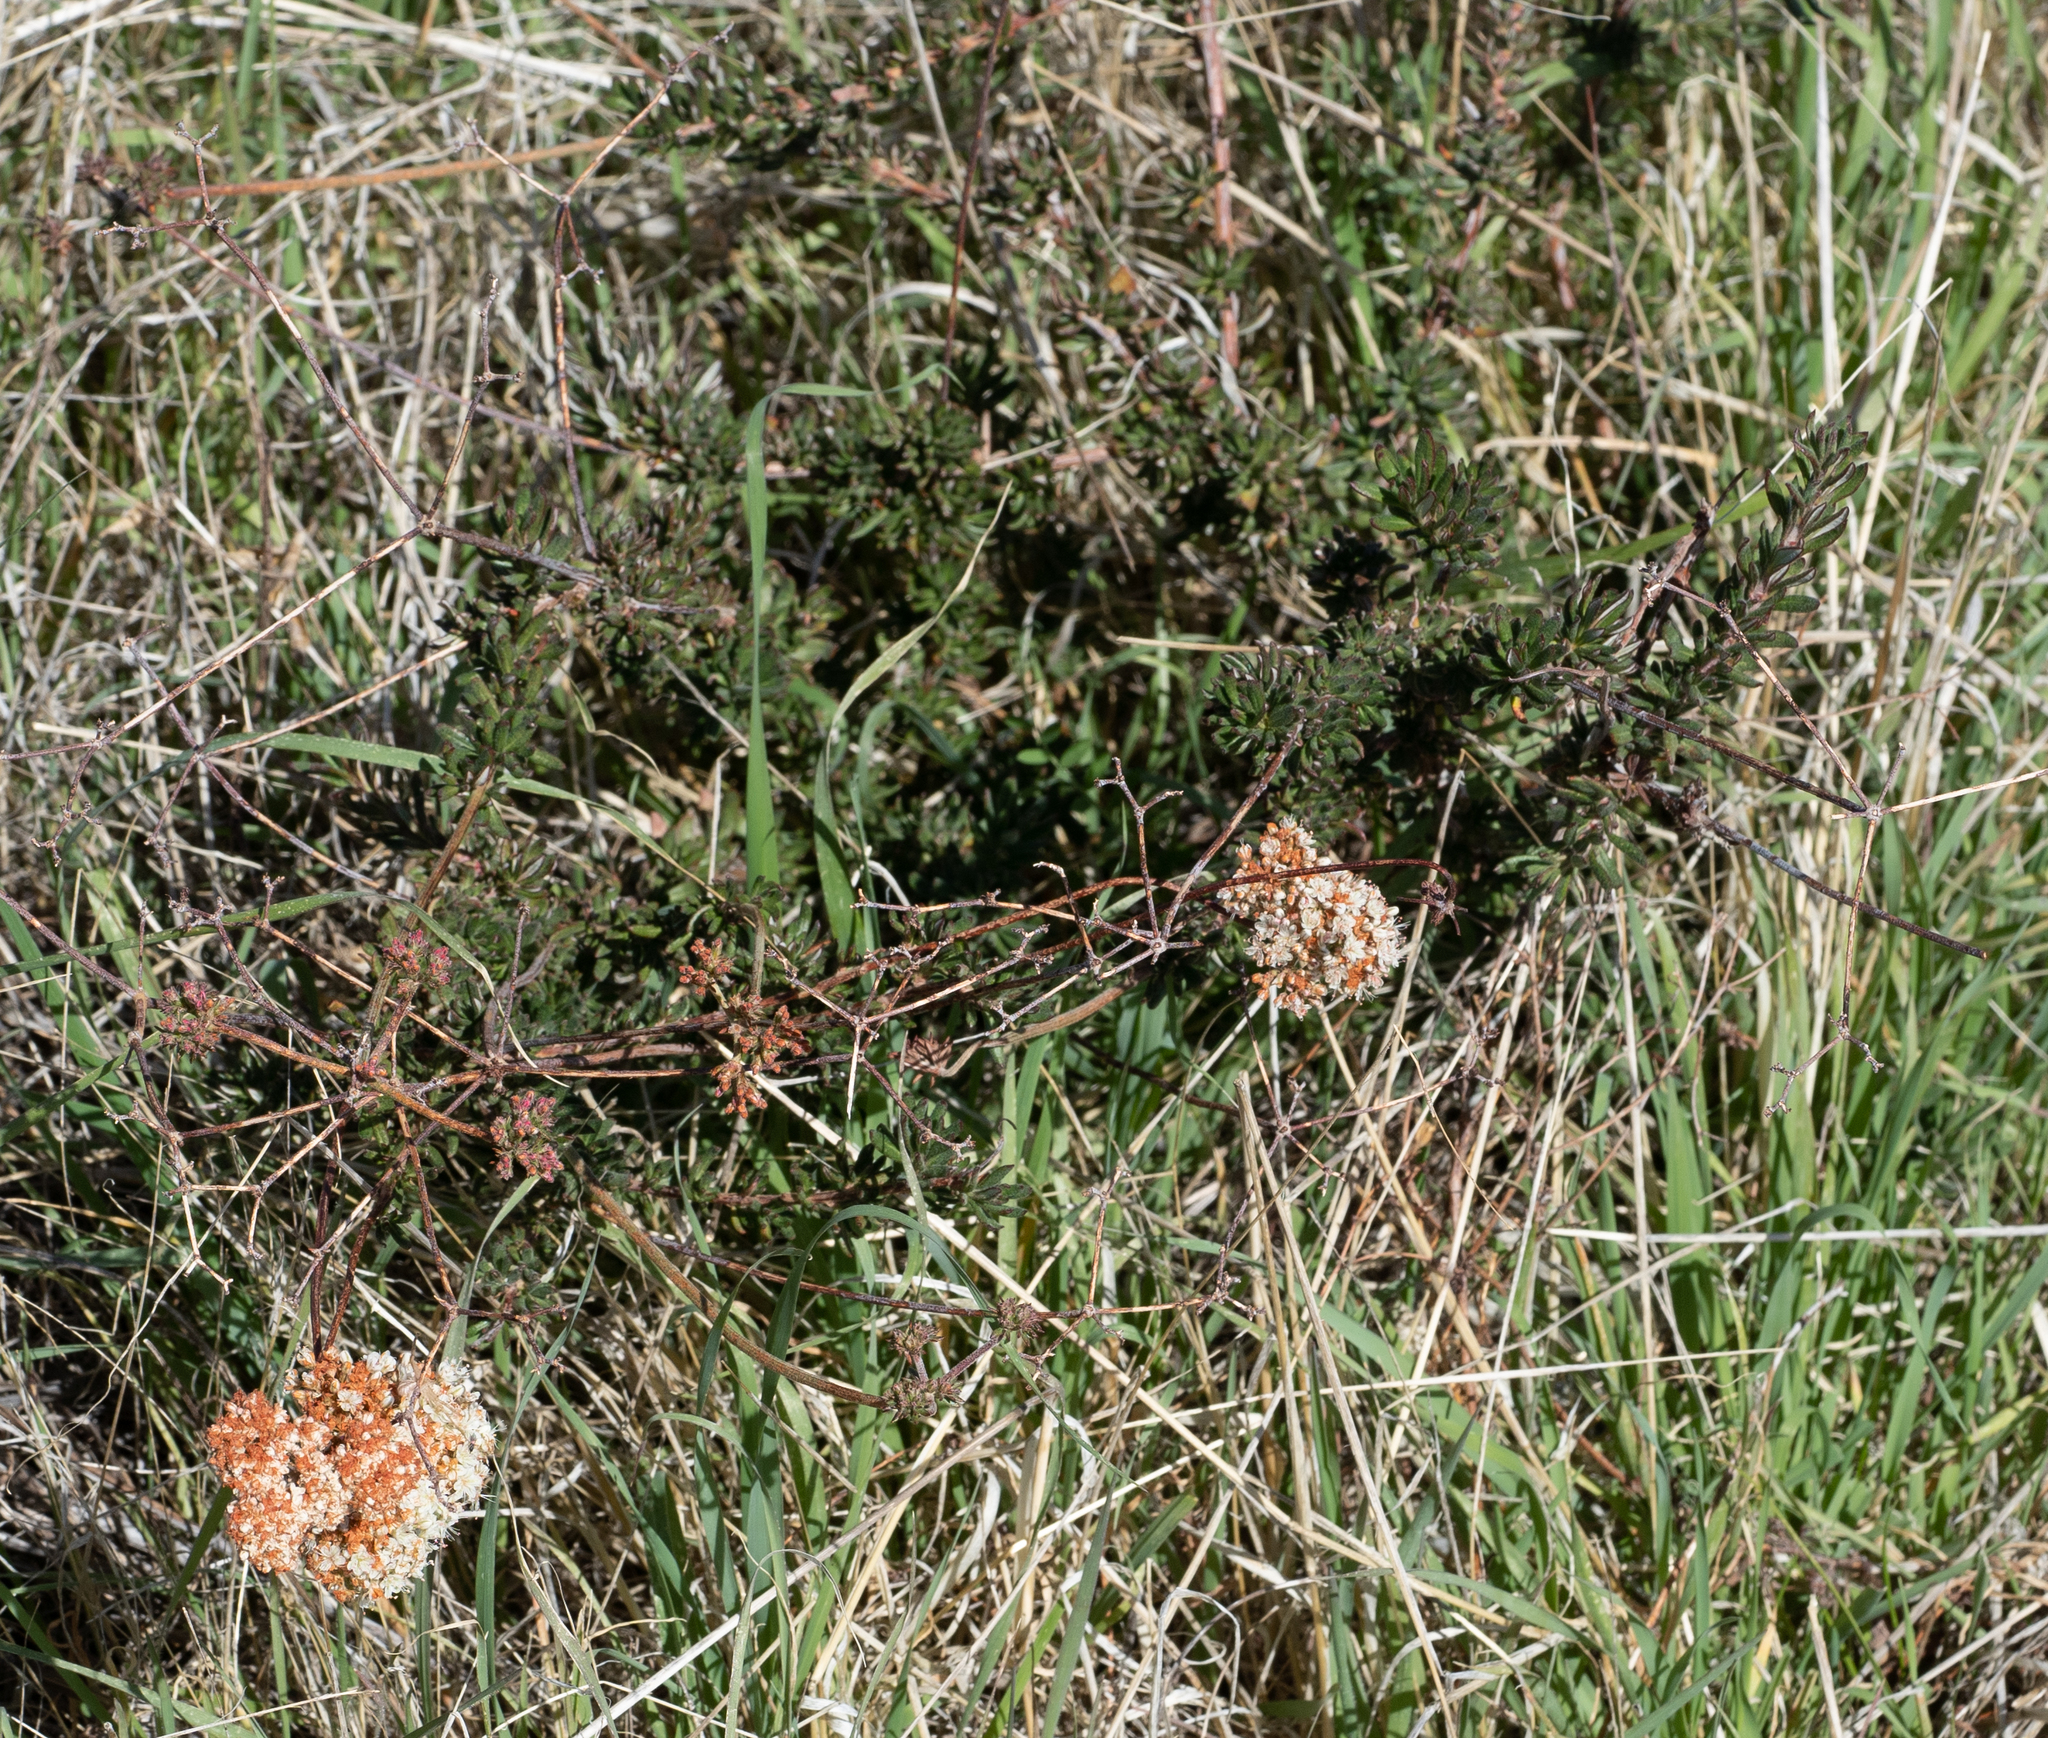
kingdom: Plantae
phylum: Tracheophyta
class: Magnoliopsida
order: Caryophyllales
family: Polygonaceae
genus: Eriogonum
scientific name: Eriogonum fasciculatum
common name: California wild buckwheat
